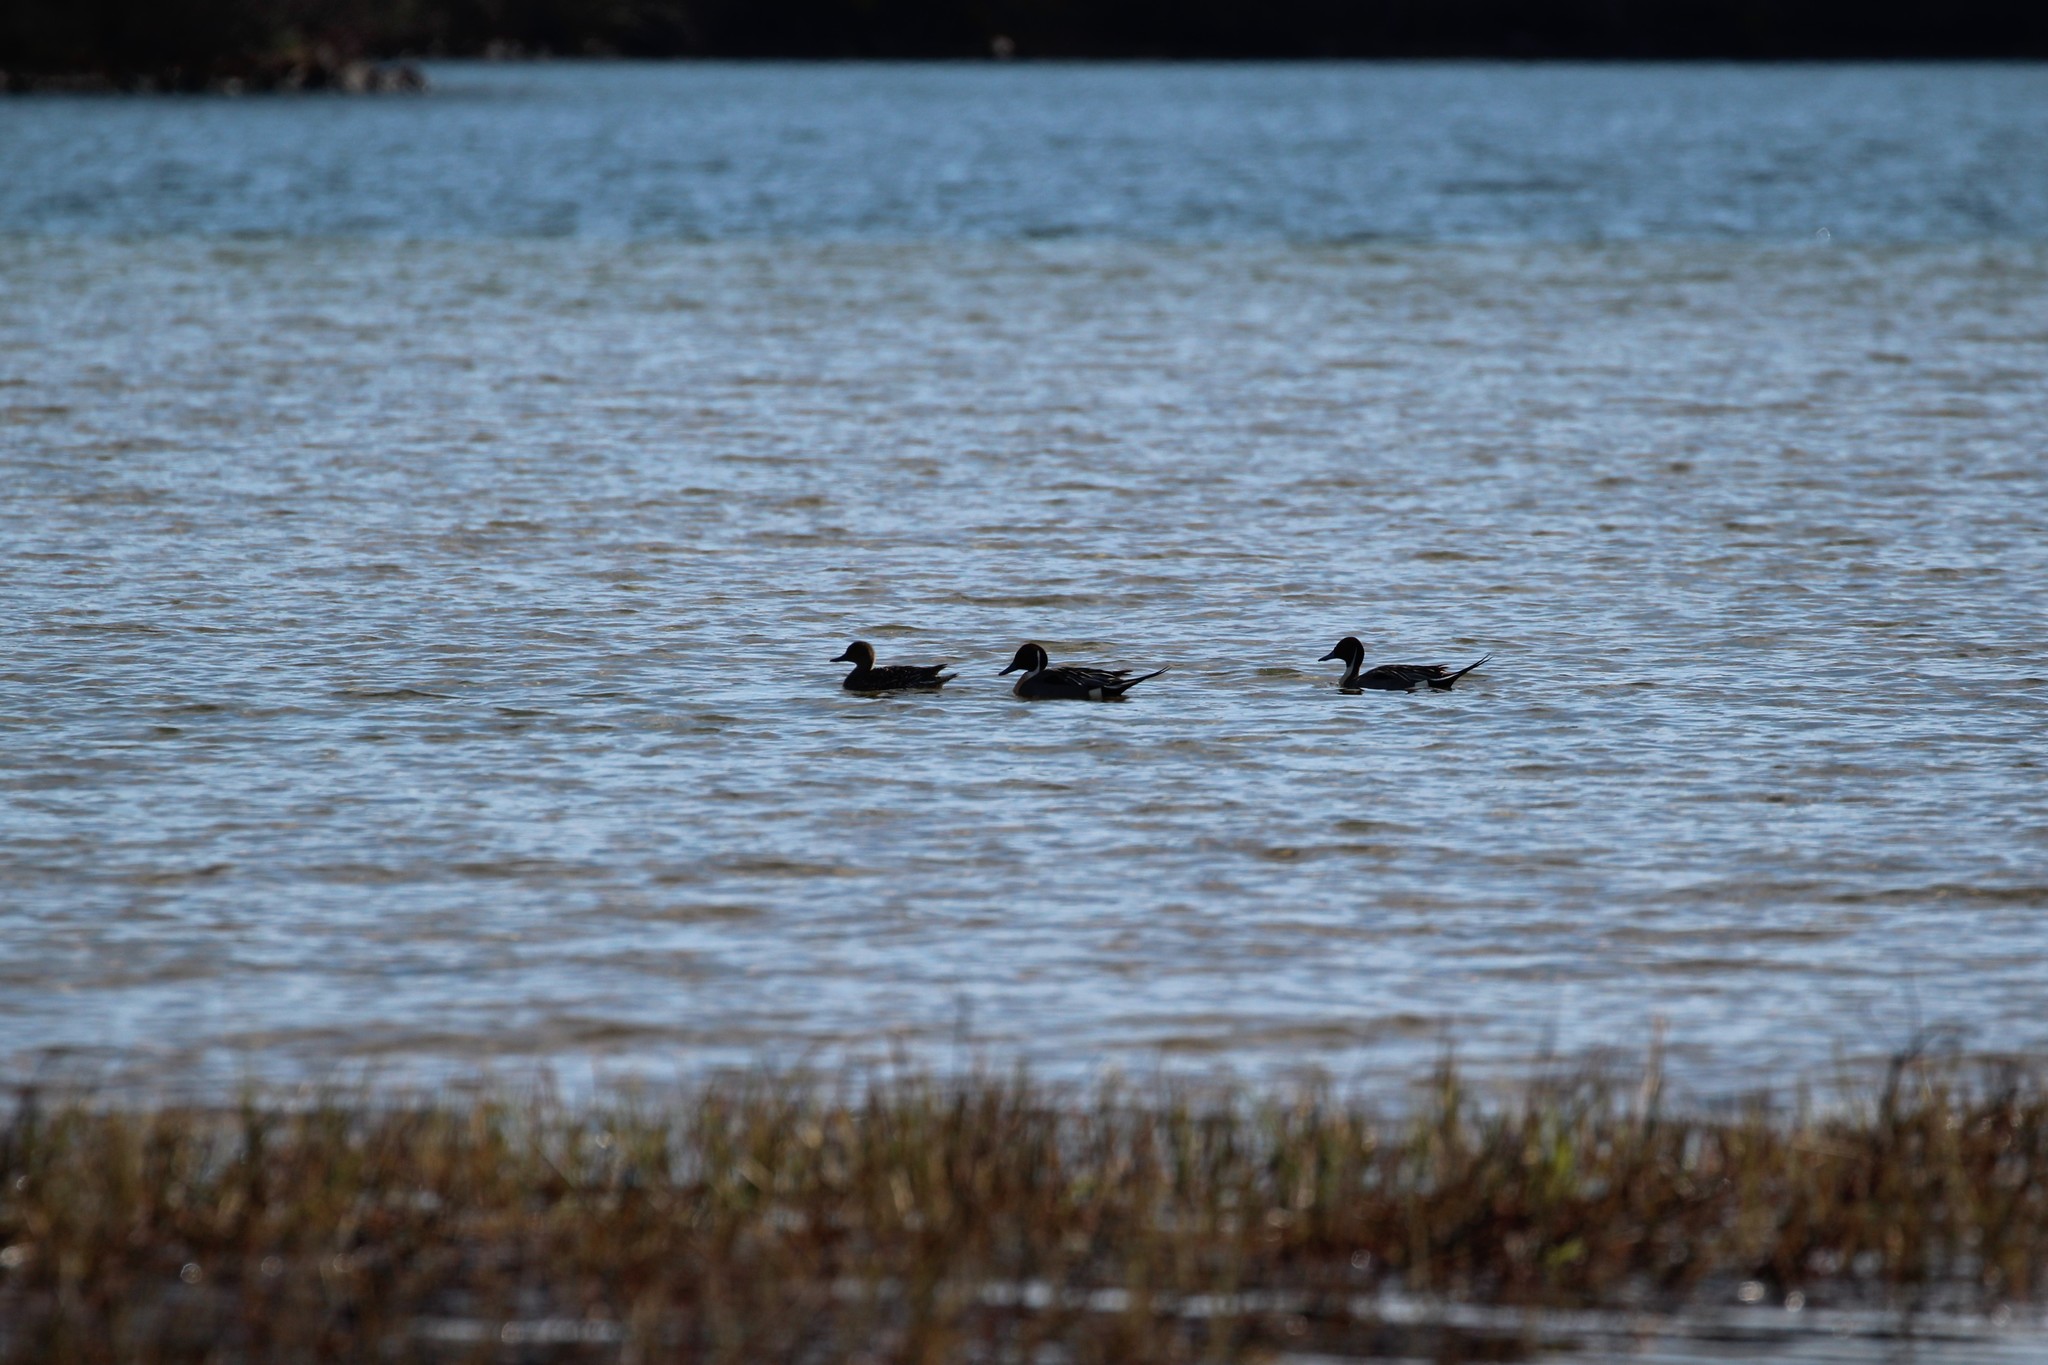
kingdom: Animalia
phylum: Chordata
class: Aves
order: Anseriformes
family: Anatidae
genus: Anas
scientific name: Anas platyrhynchos
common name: Mallard
